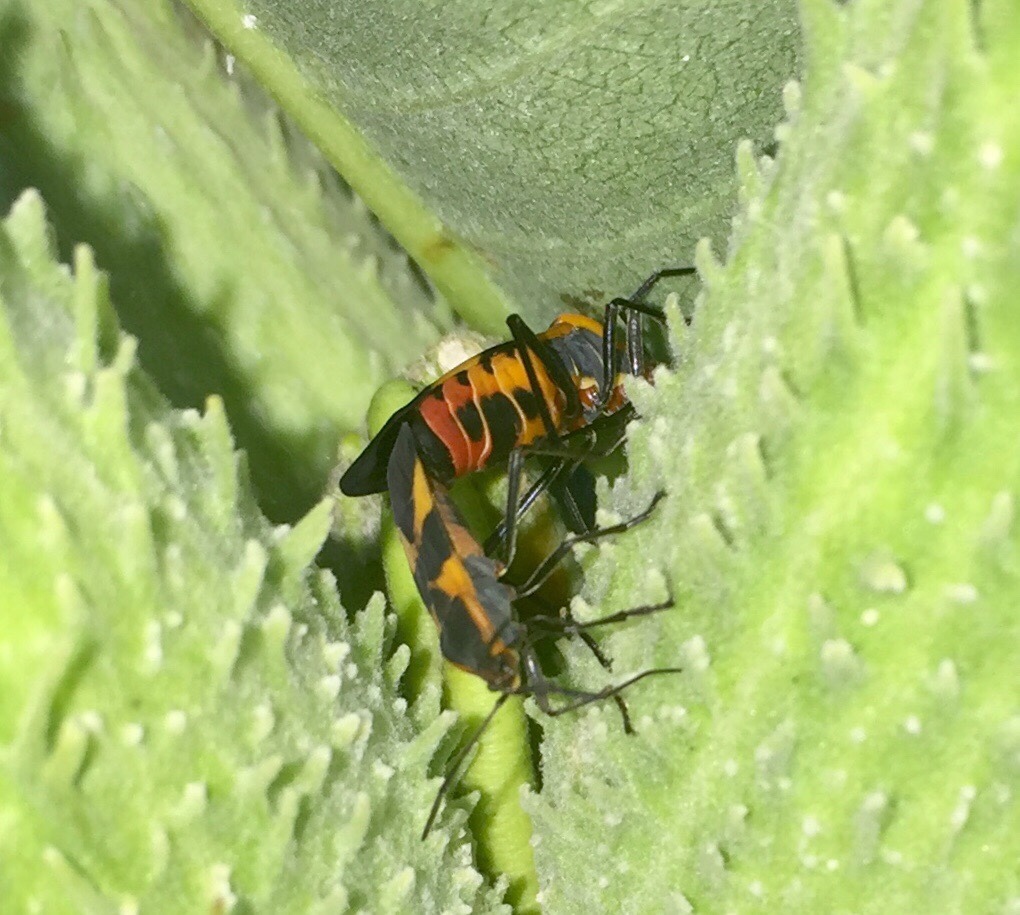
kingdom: Animalia
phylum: Arthropoda
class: Insecta
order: Hemiptera
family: Lygaeidae
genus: Oncopeltus
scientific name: Oncopeltus fasciatus
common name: Large milkweed bug
